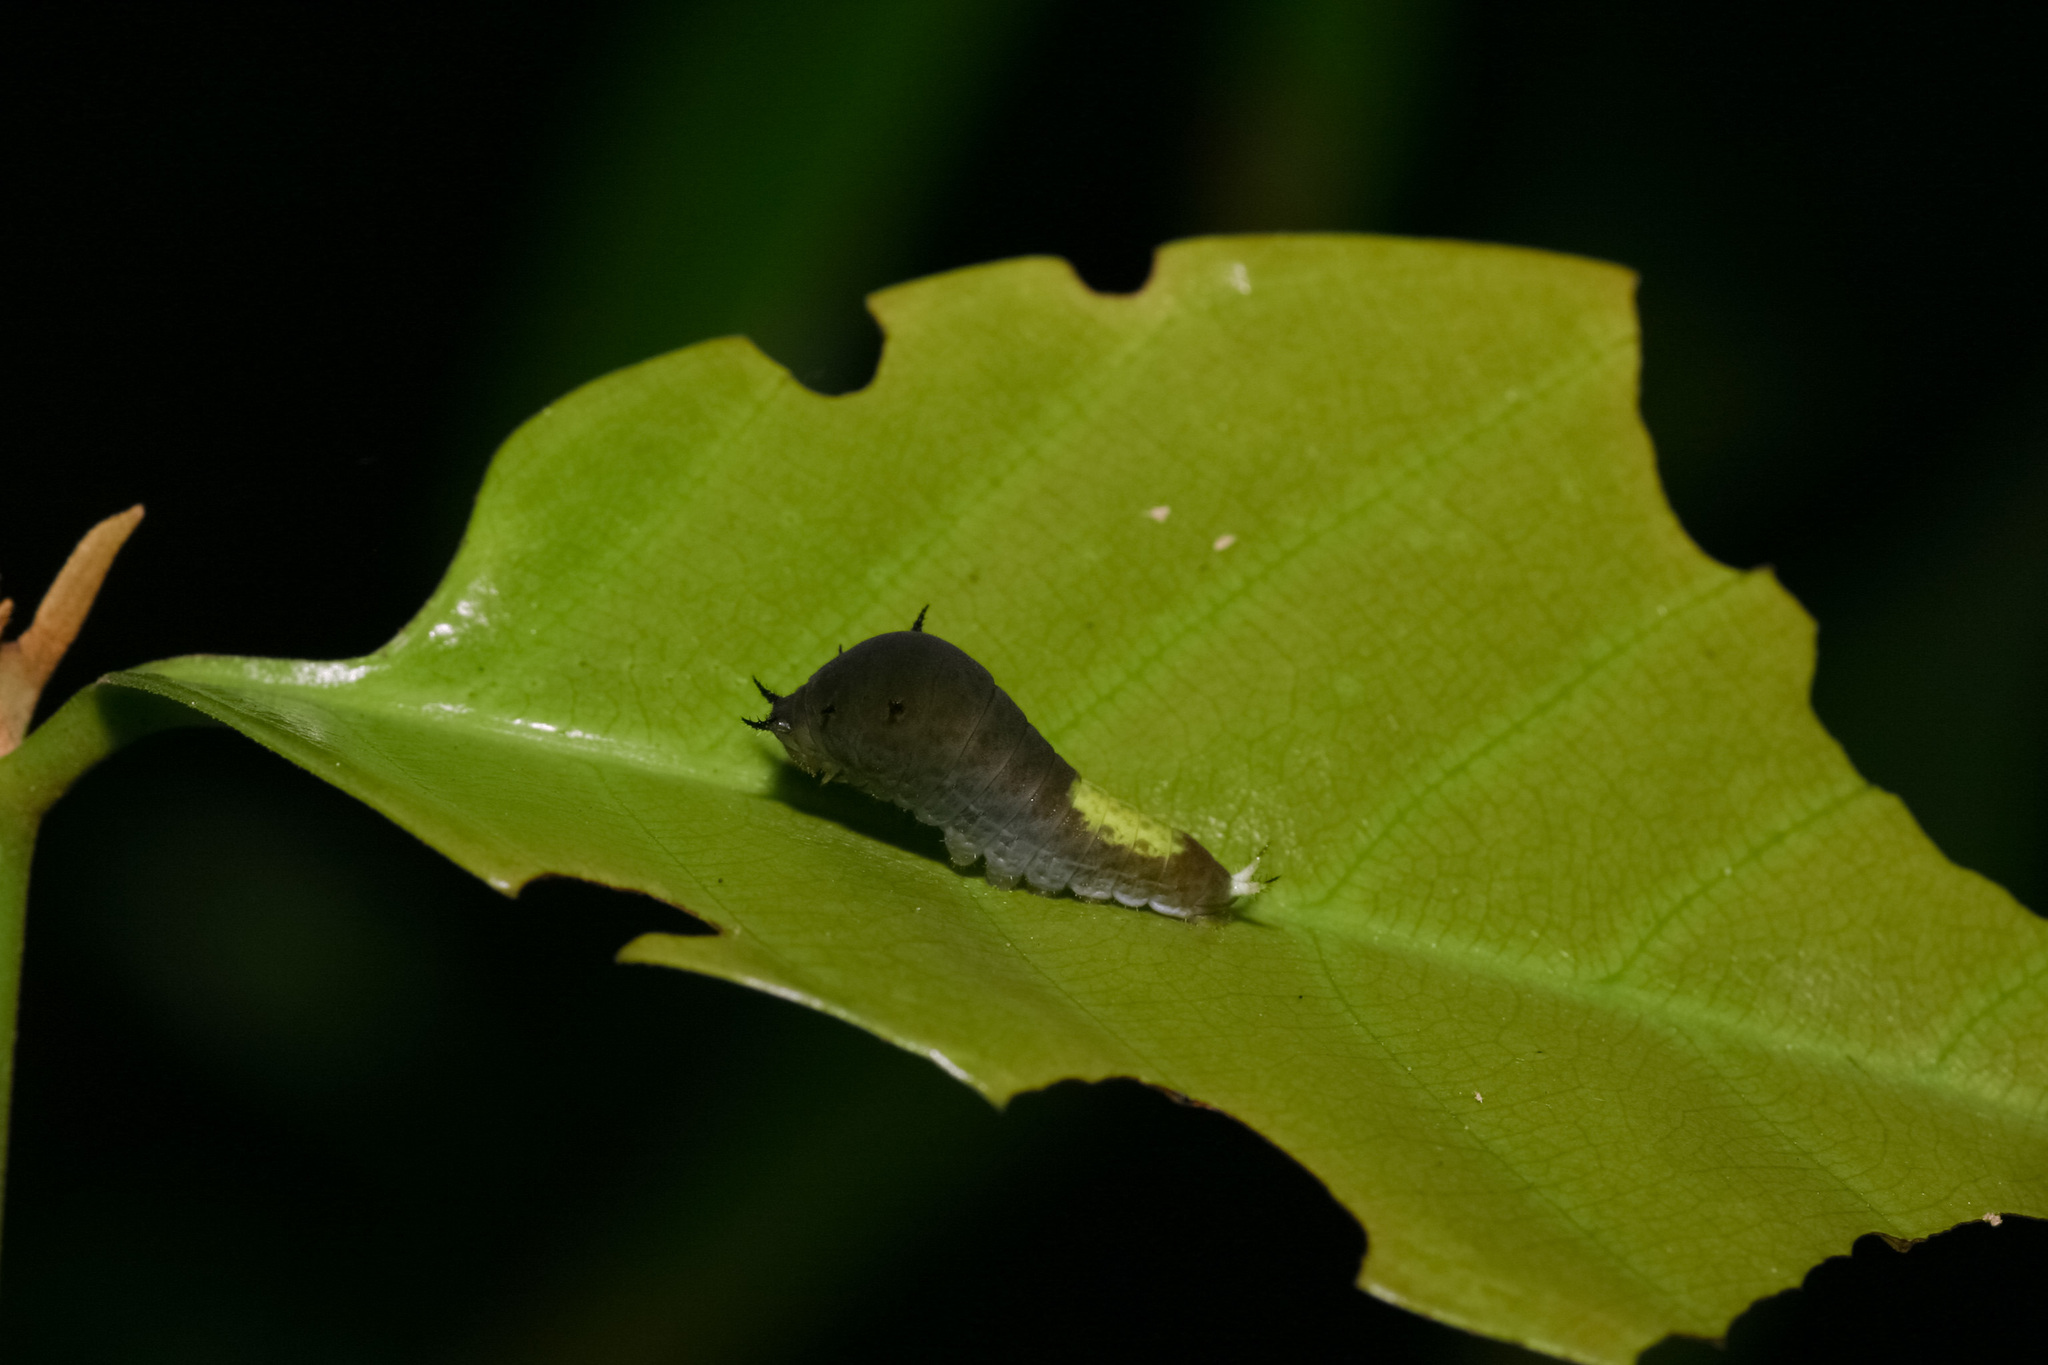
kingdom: Animalia
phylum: Arthropoda
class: Insecta
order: Lepidoptera
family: Papilionidae
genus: Graphium
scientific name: Graphium agamemnon
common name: Tailed jay
